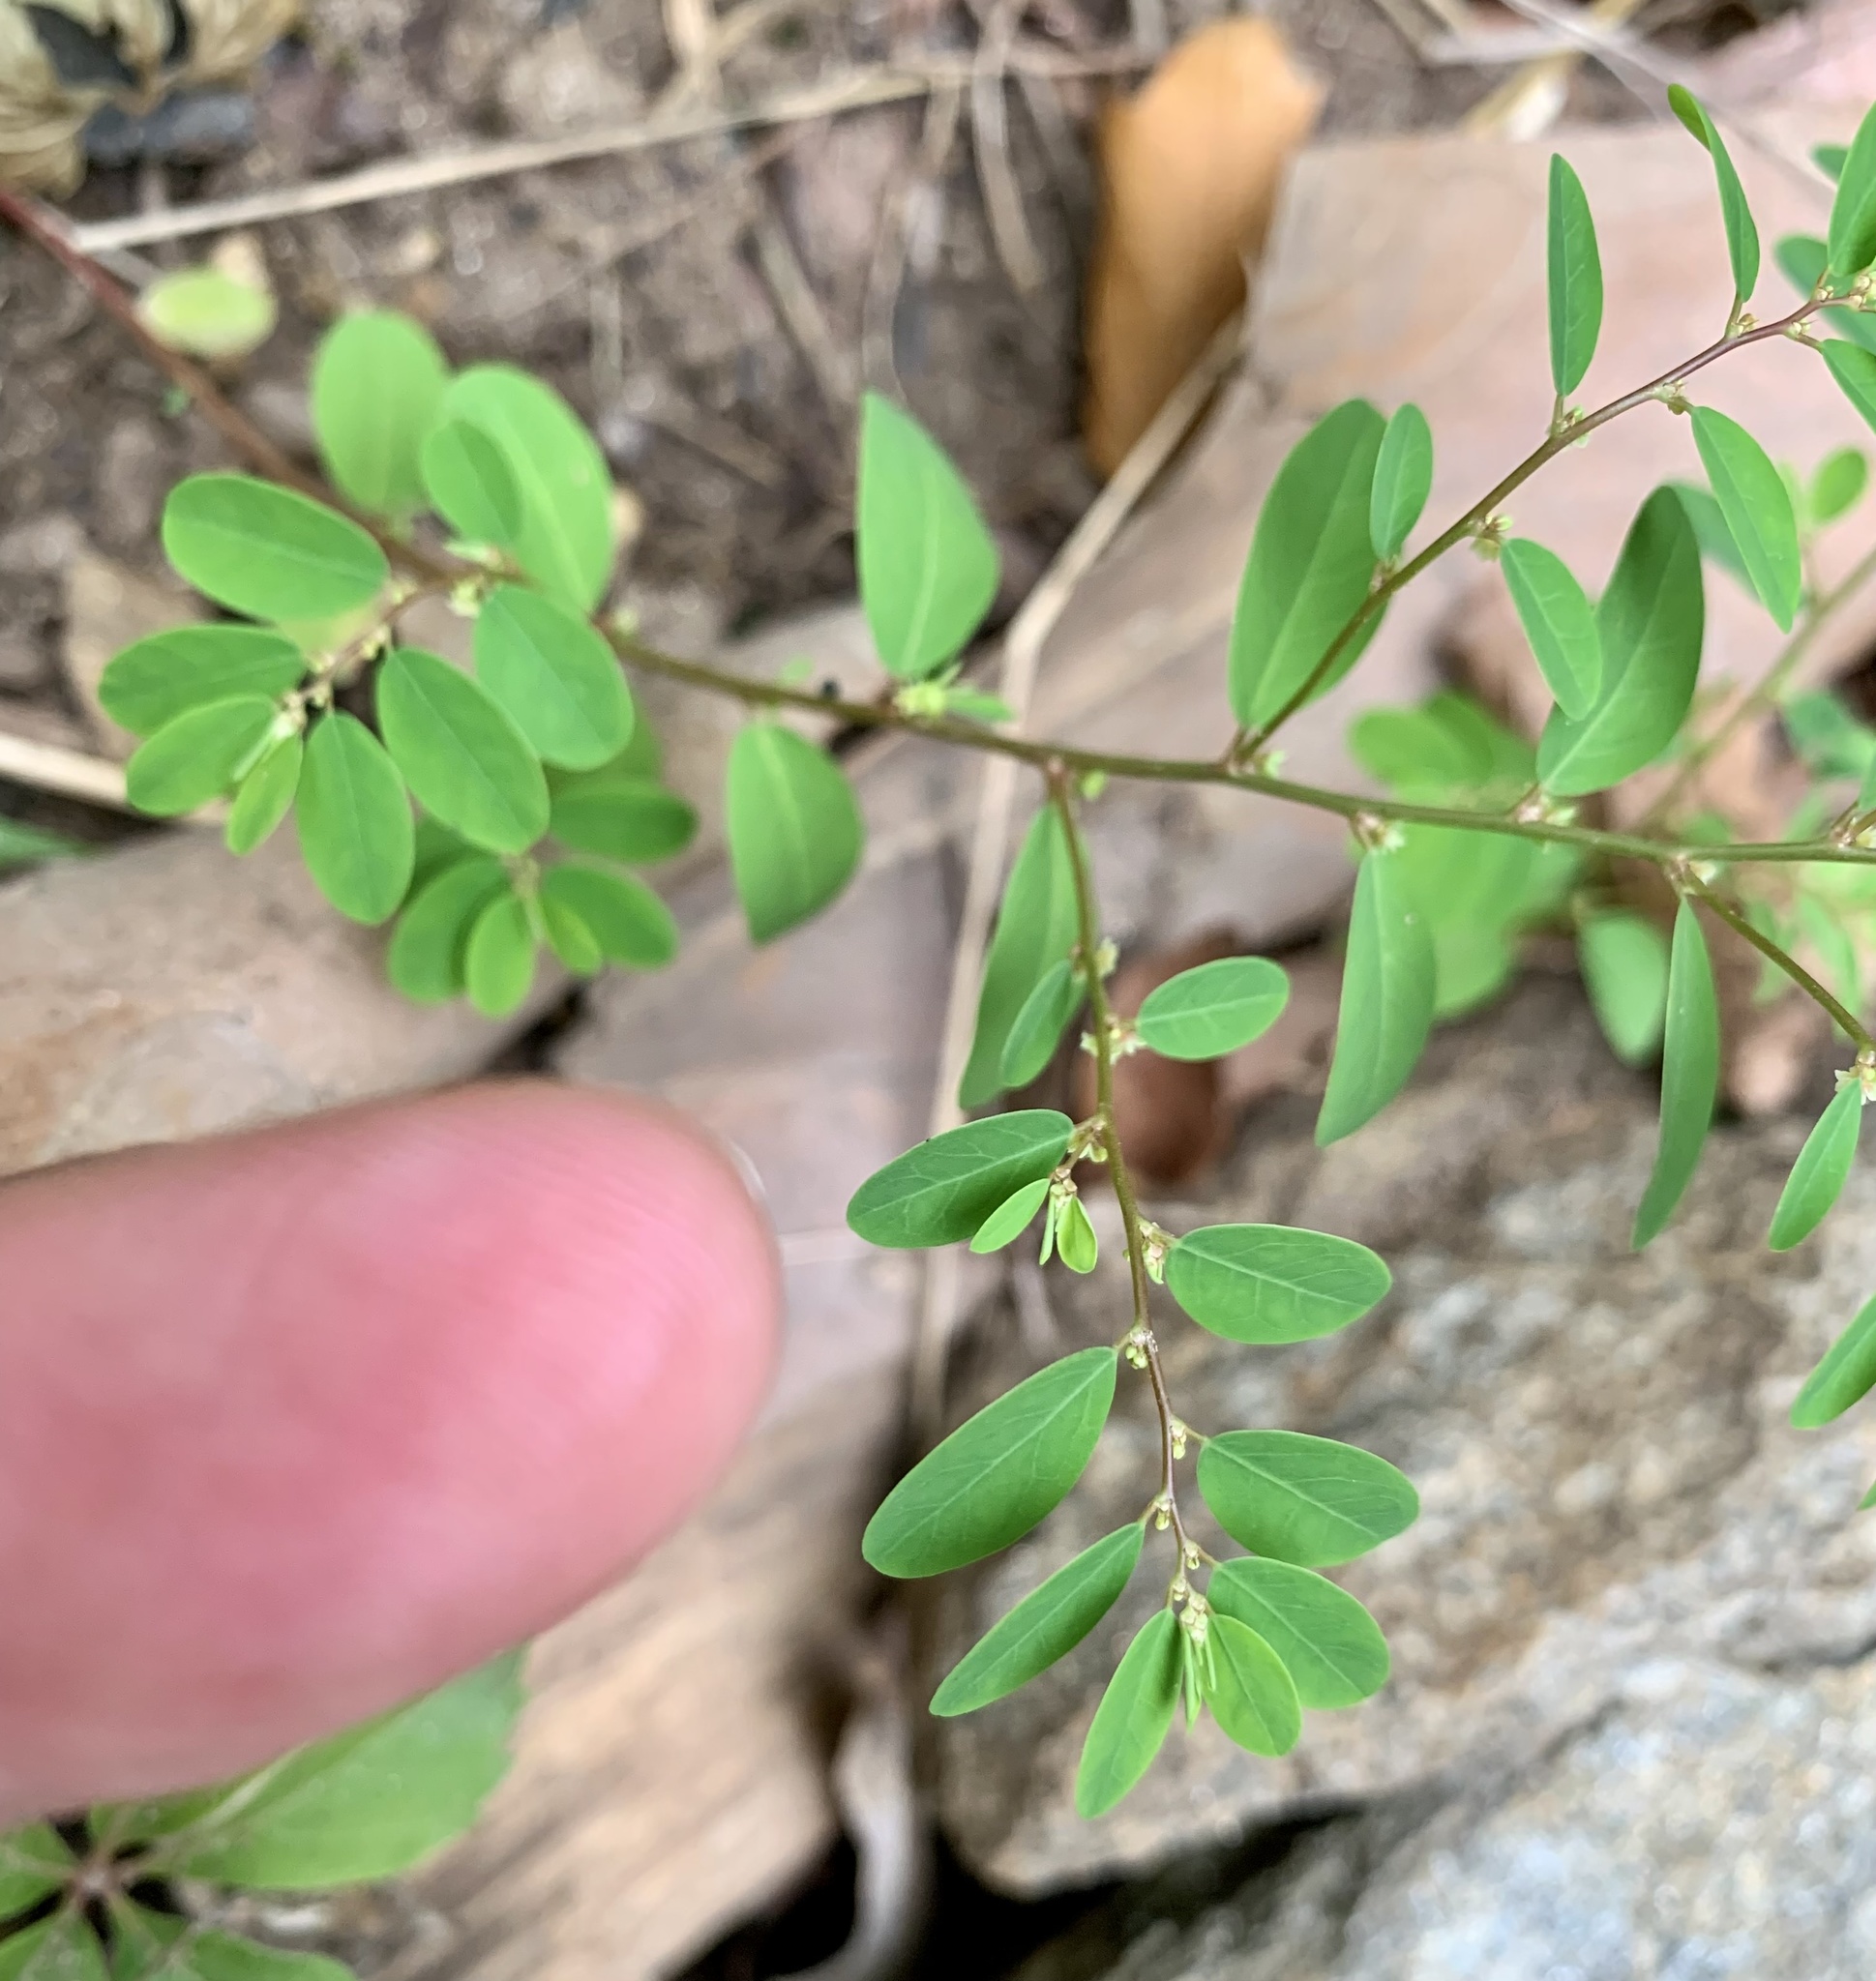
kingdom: Plantae
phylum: Tracheophyta
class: Magnoliopsida
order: Malpighiales
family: Phyllanthaceae
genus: Phyllanthus
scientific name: Phyllanthus caroliniensis
